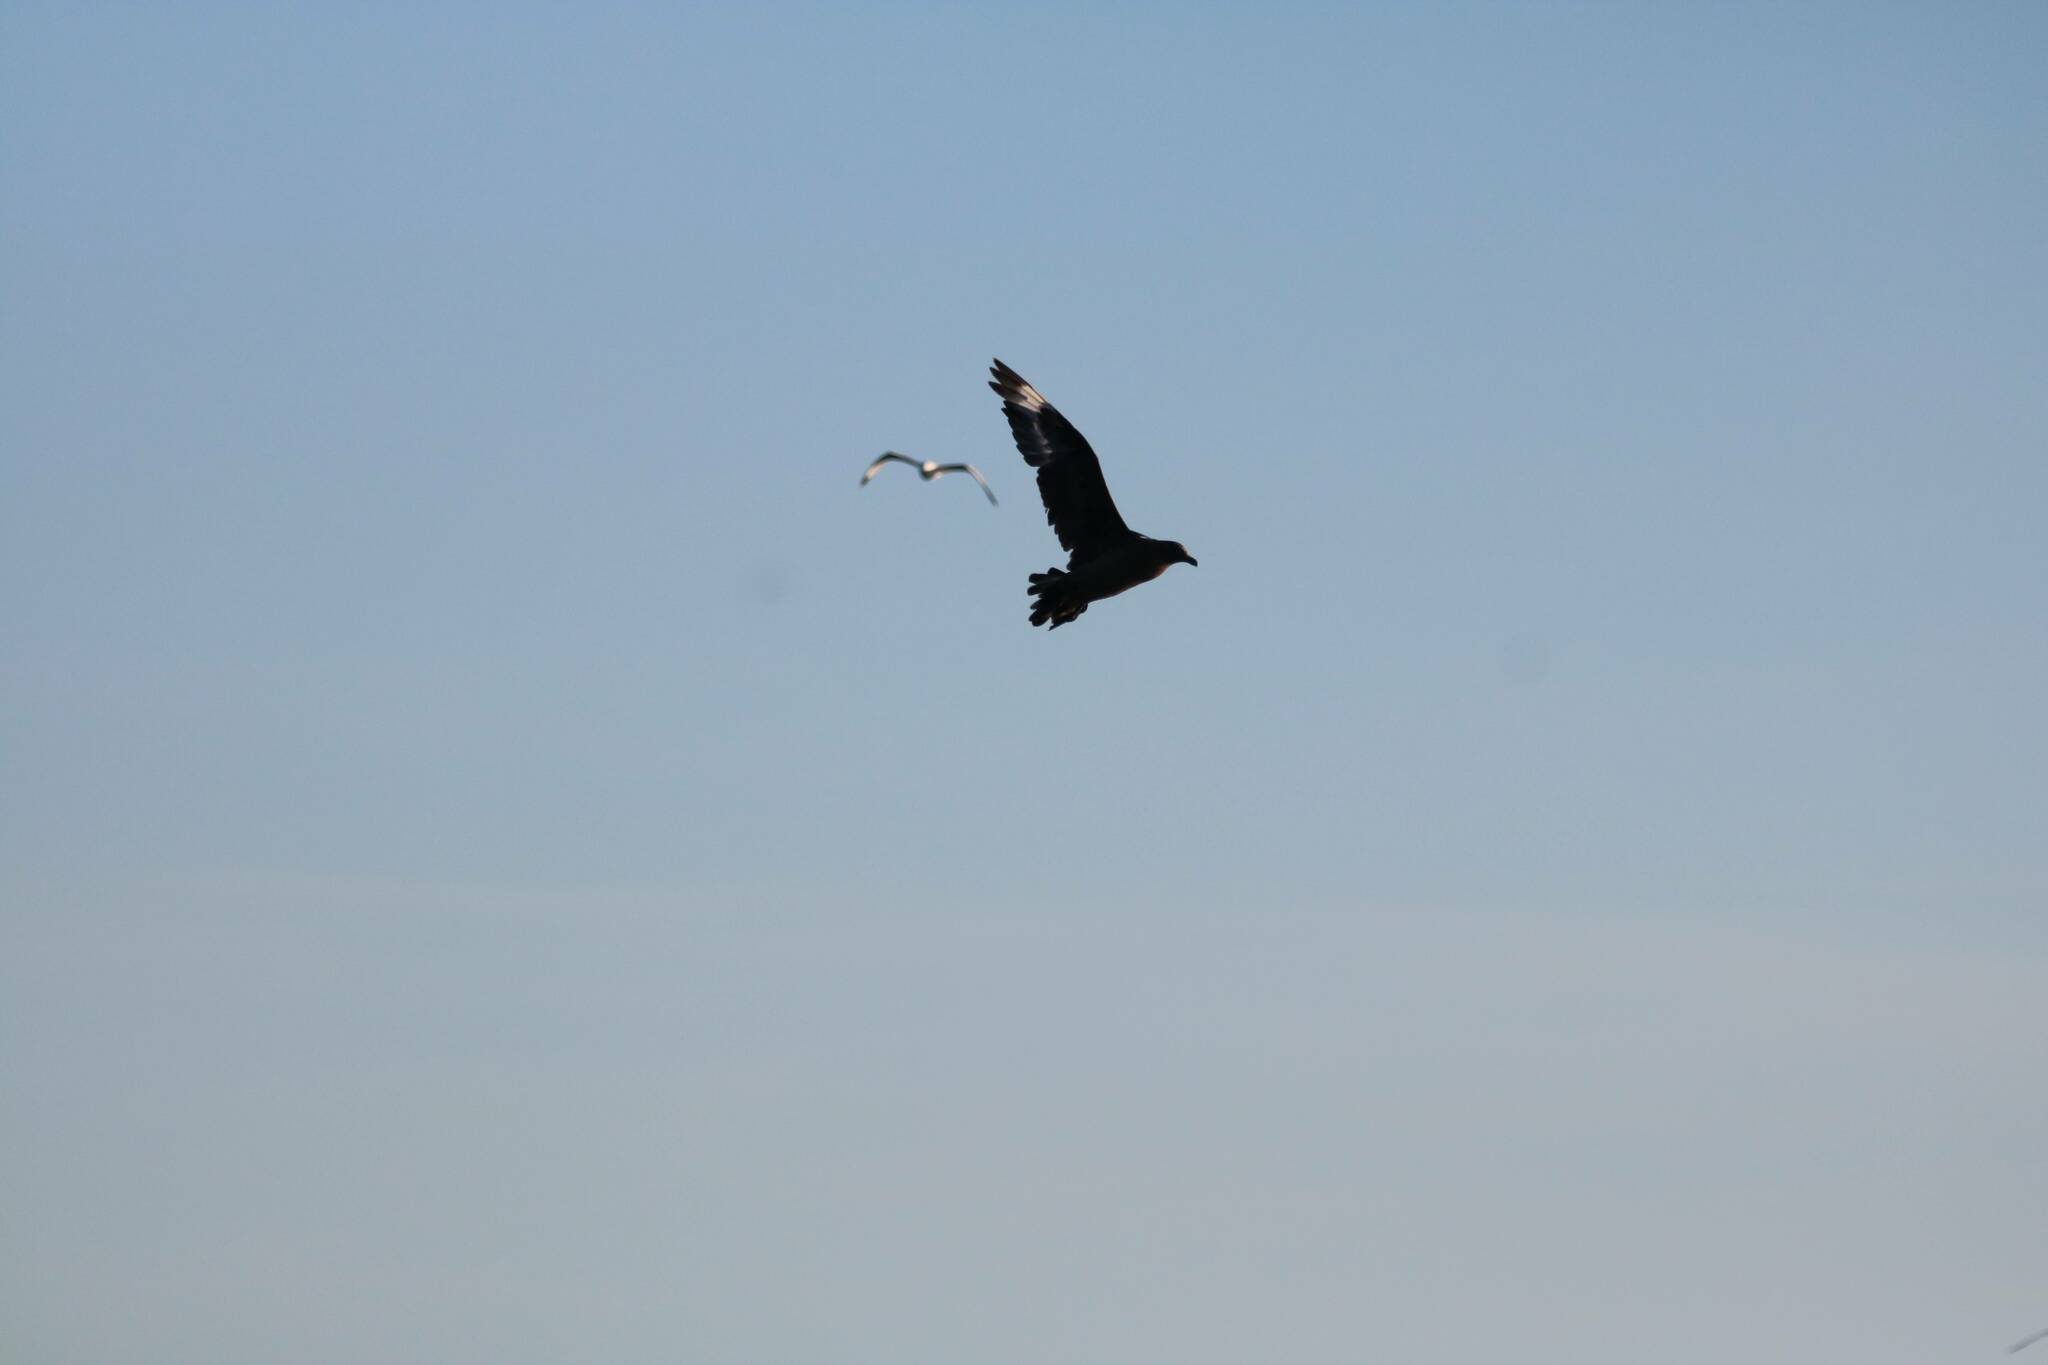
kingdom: Animalia
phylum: Chordata
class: Aves
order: Charadriiformes
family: Stercorariidae
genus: Stercorarius
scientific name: Stercorarius skua
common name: Great skua
